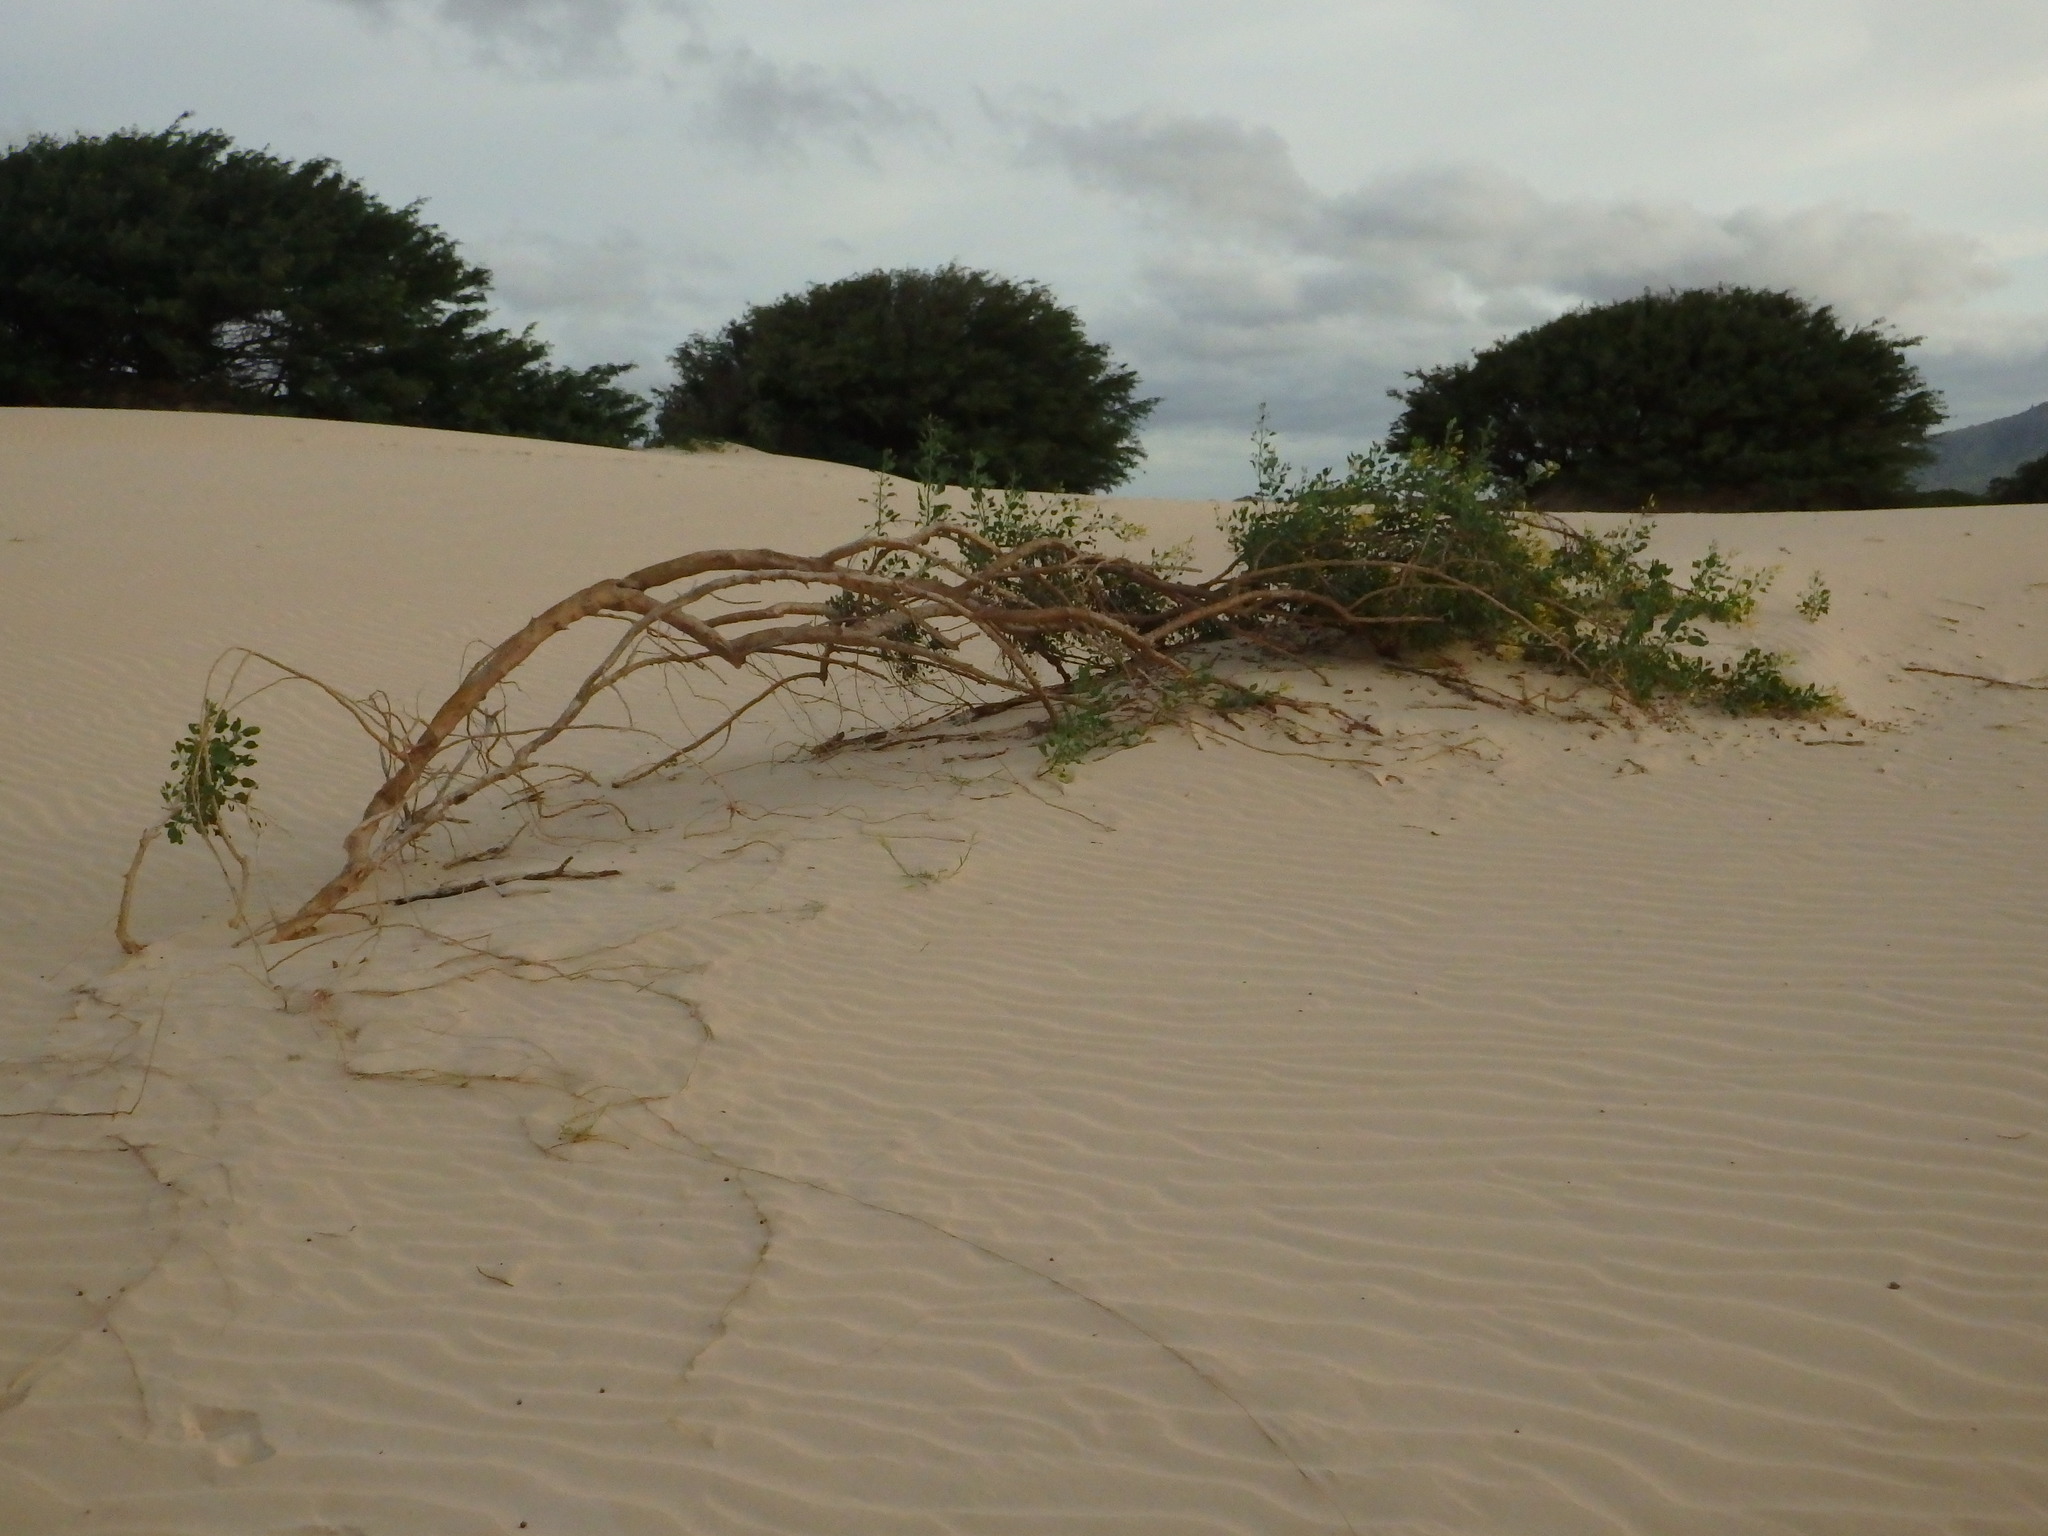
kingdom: Plantae
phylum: Tracheophyta
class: Magnoliopsida
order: Solanales
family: Solanaceae
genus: Nicotiana
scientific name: Nicotiana glauca
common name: Tree tobacco
